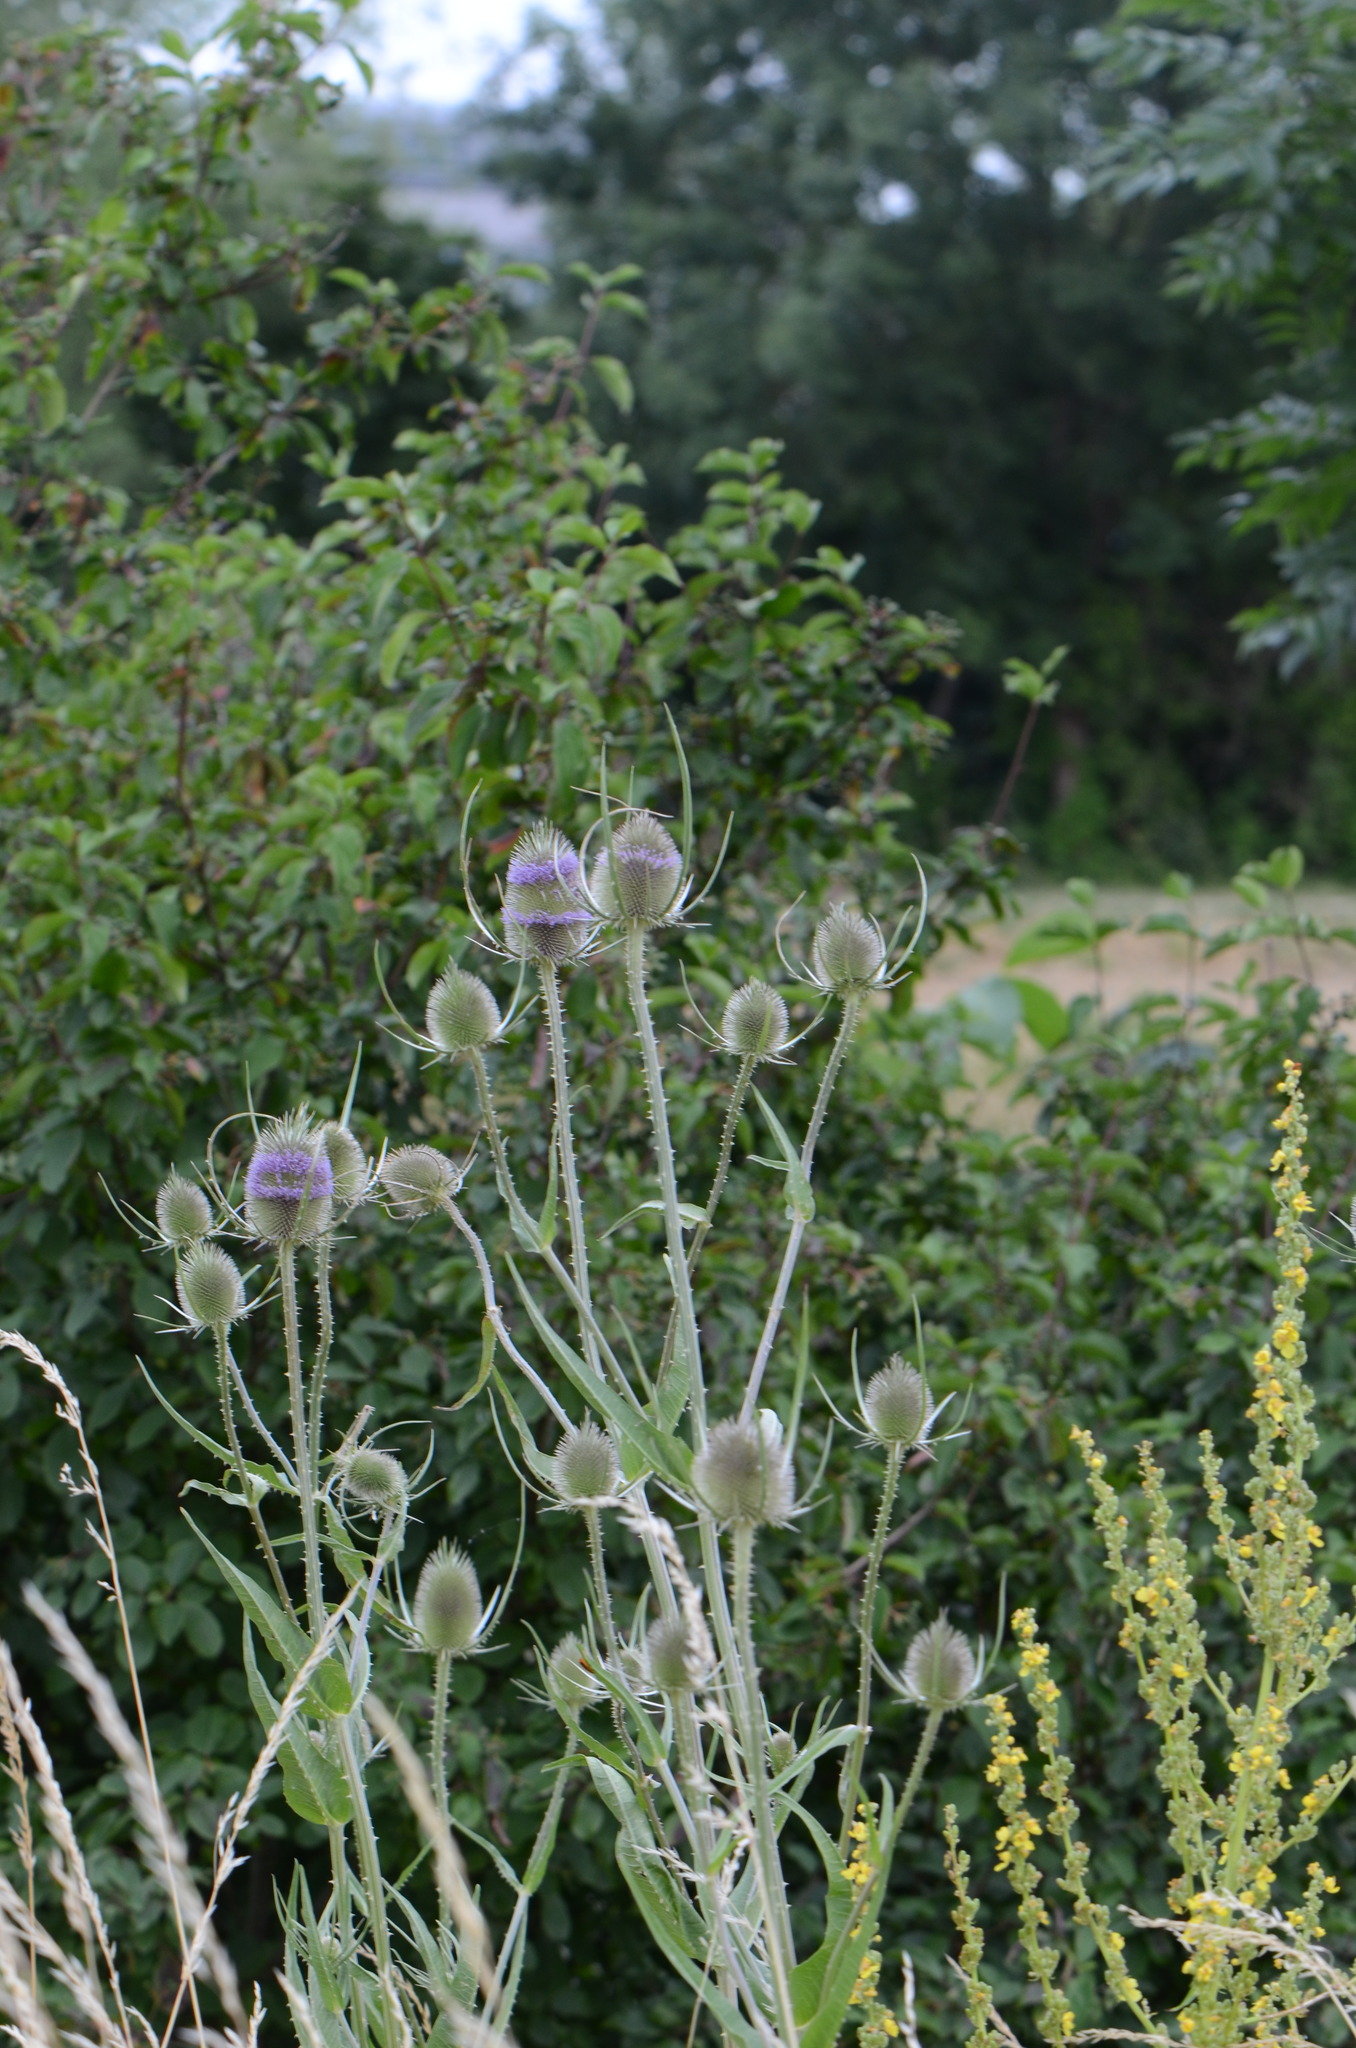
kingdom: Plantae
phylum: Tracheophyta
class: Magnoliopsida
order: Dipsacales
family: Caprifoliaceae
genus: Dipsacus
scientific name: Dipsacus fullonum
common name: Teasel
